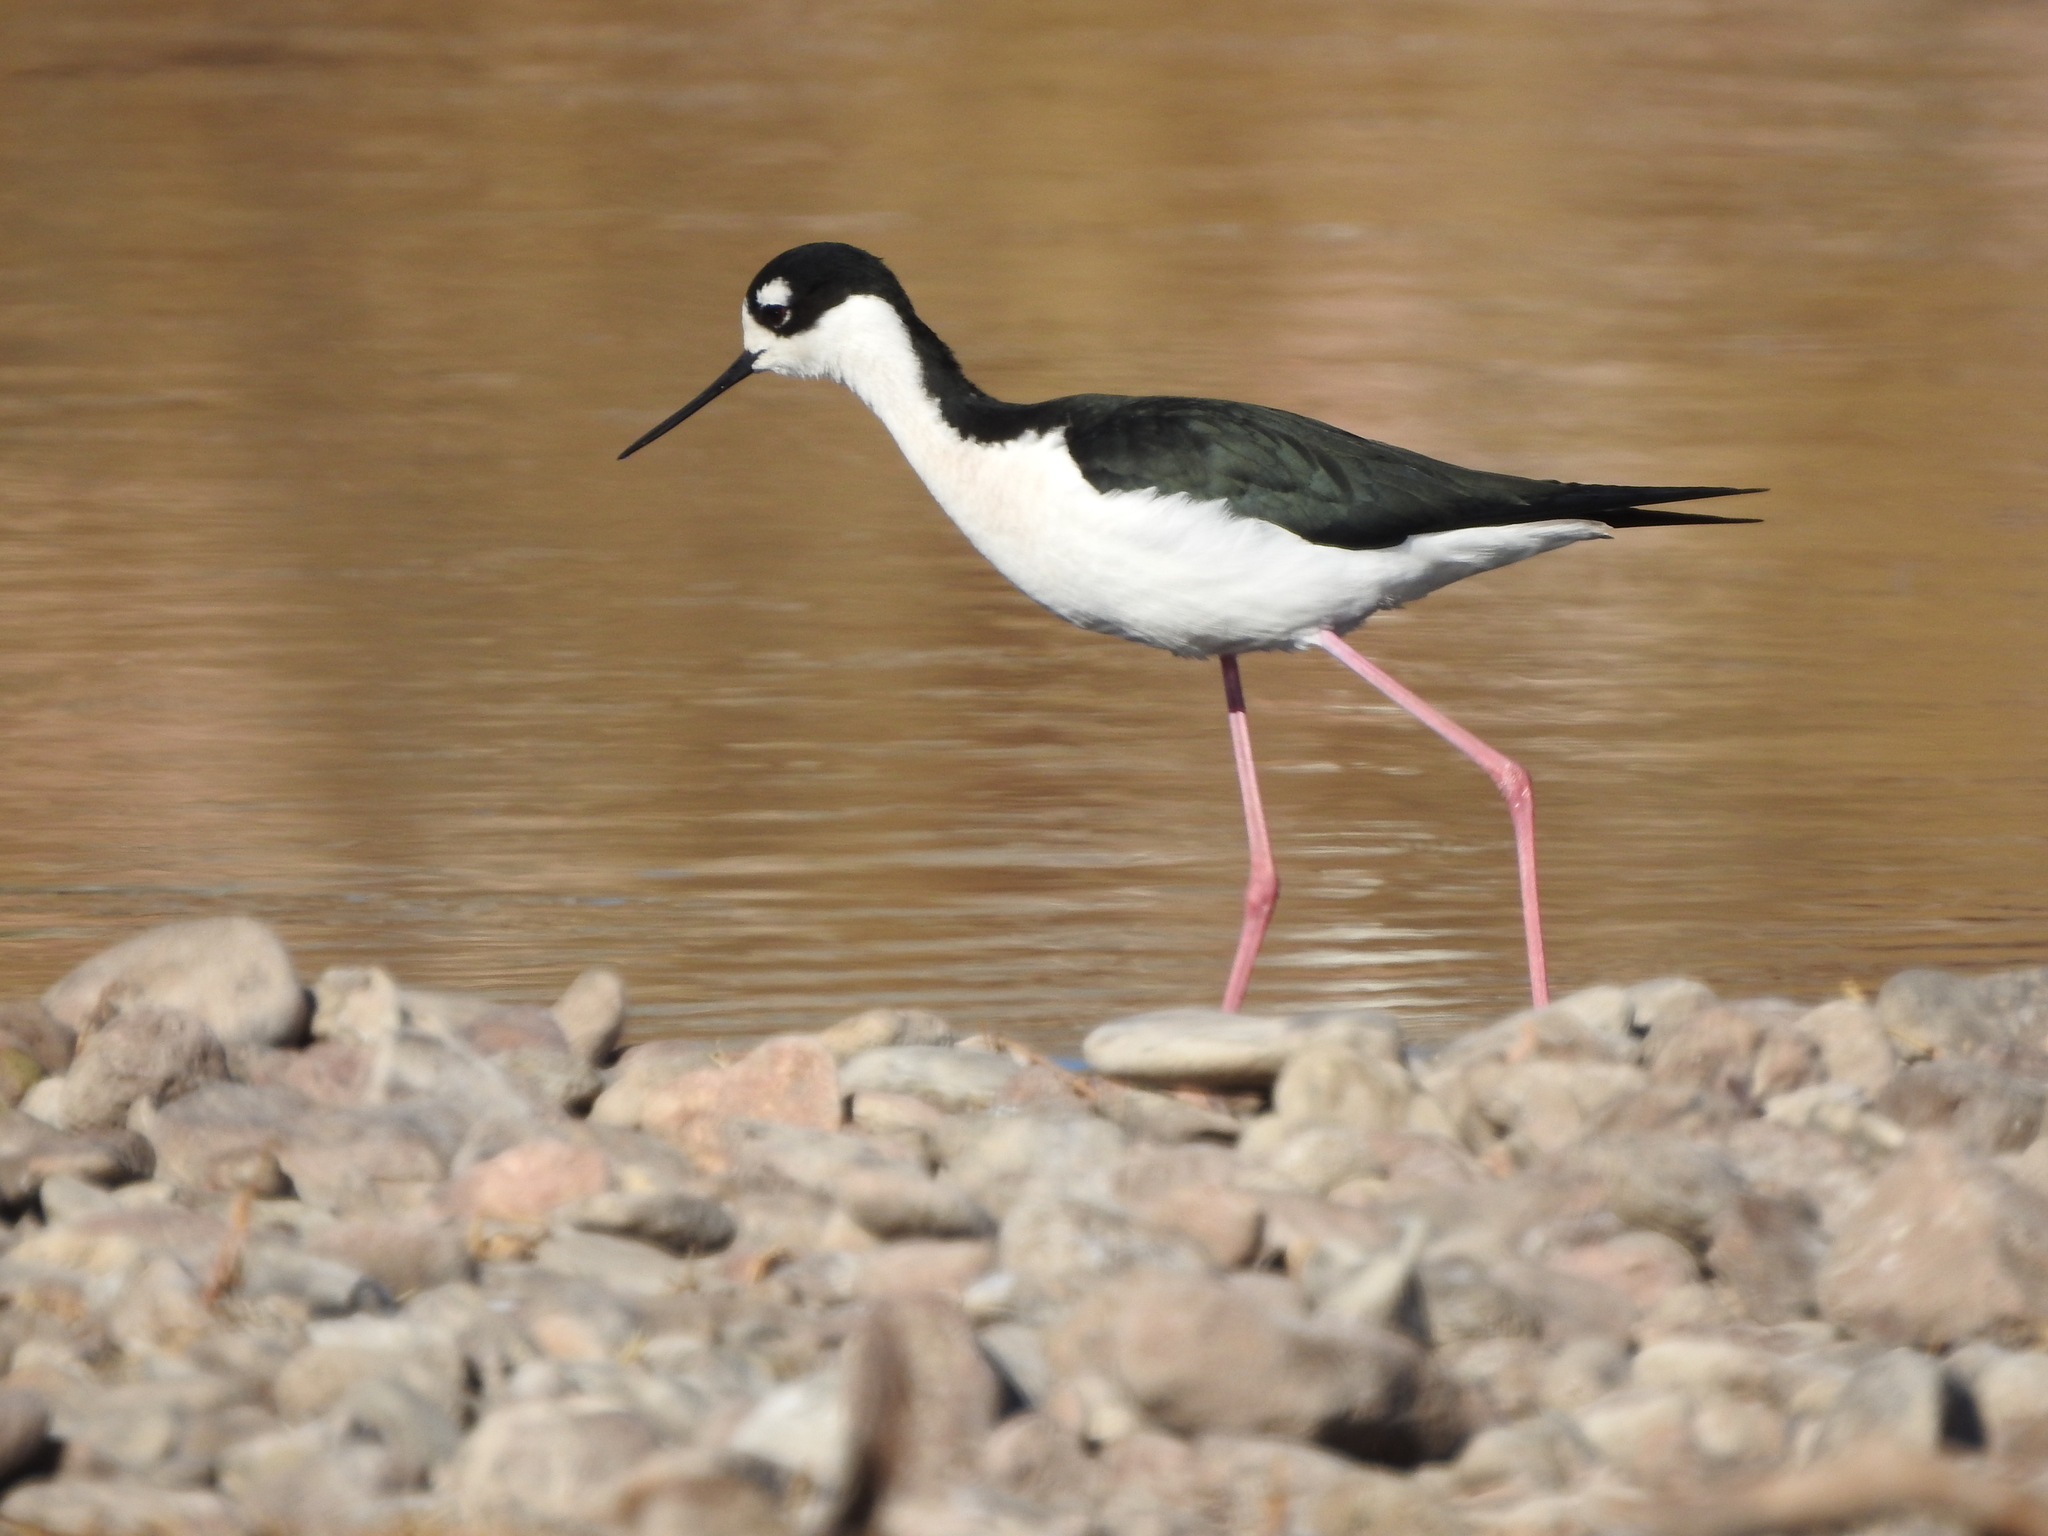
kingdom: Animalia
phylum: Chordata
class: Aves
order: Charadriiformes
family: Recurvirostridae
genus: Himantopus
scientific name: Himantopus mexicanus
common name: Black-necked stilt
